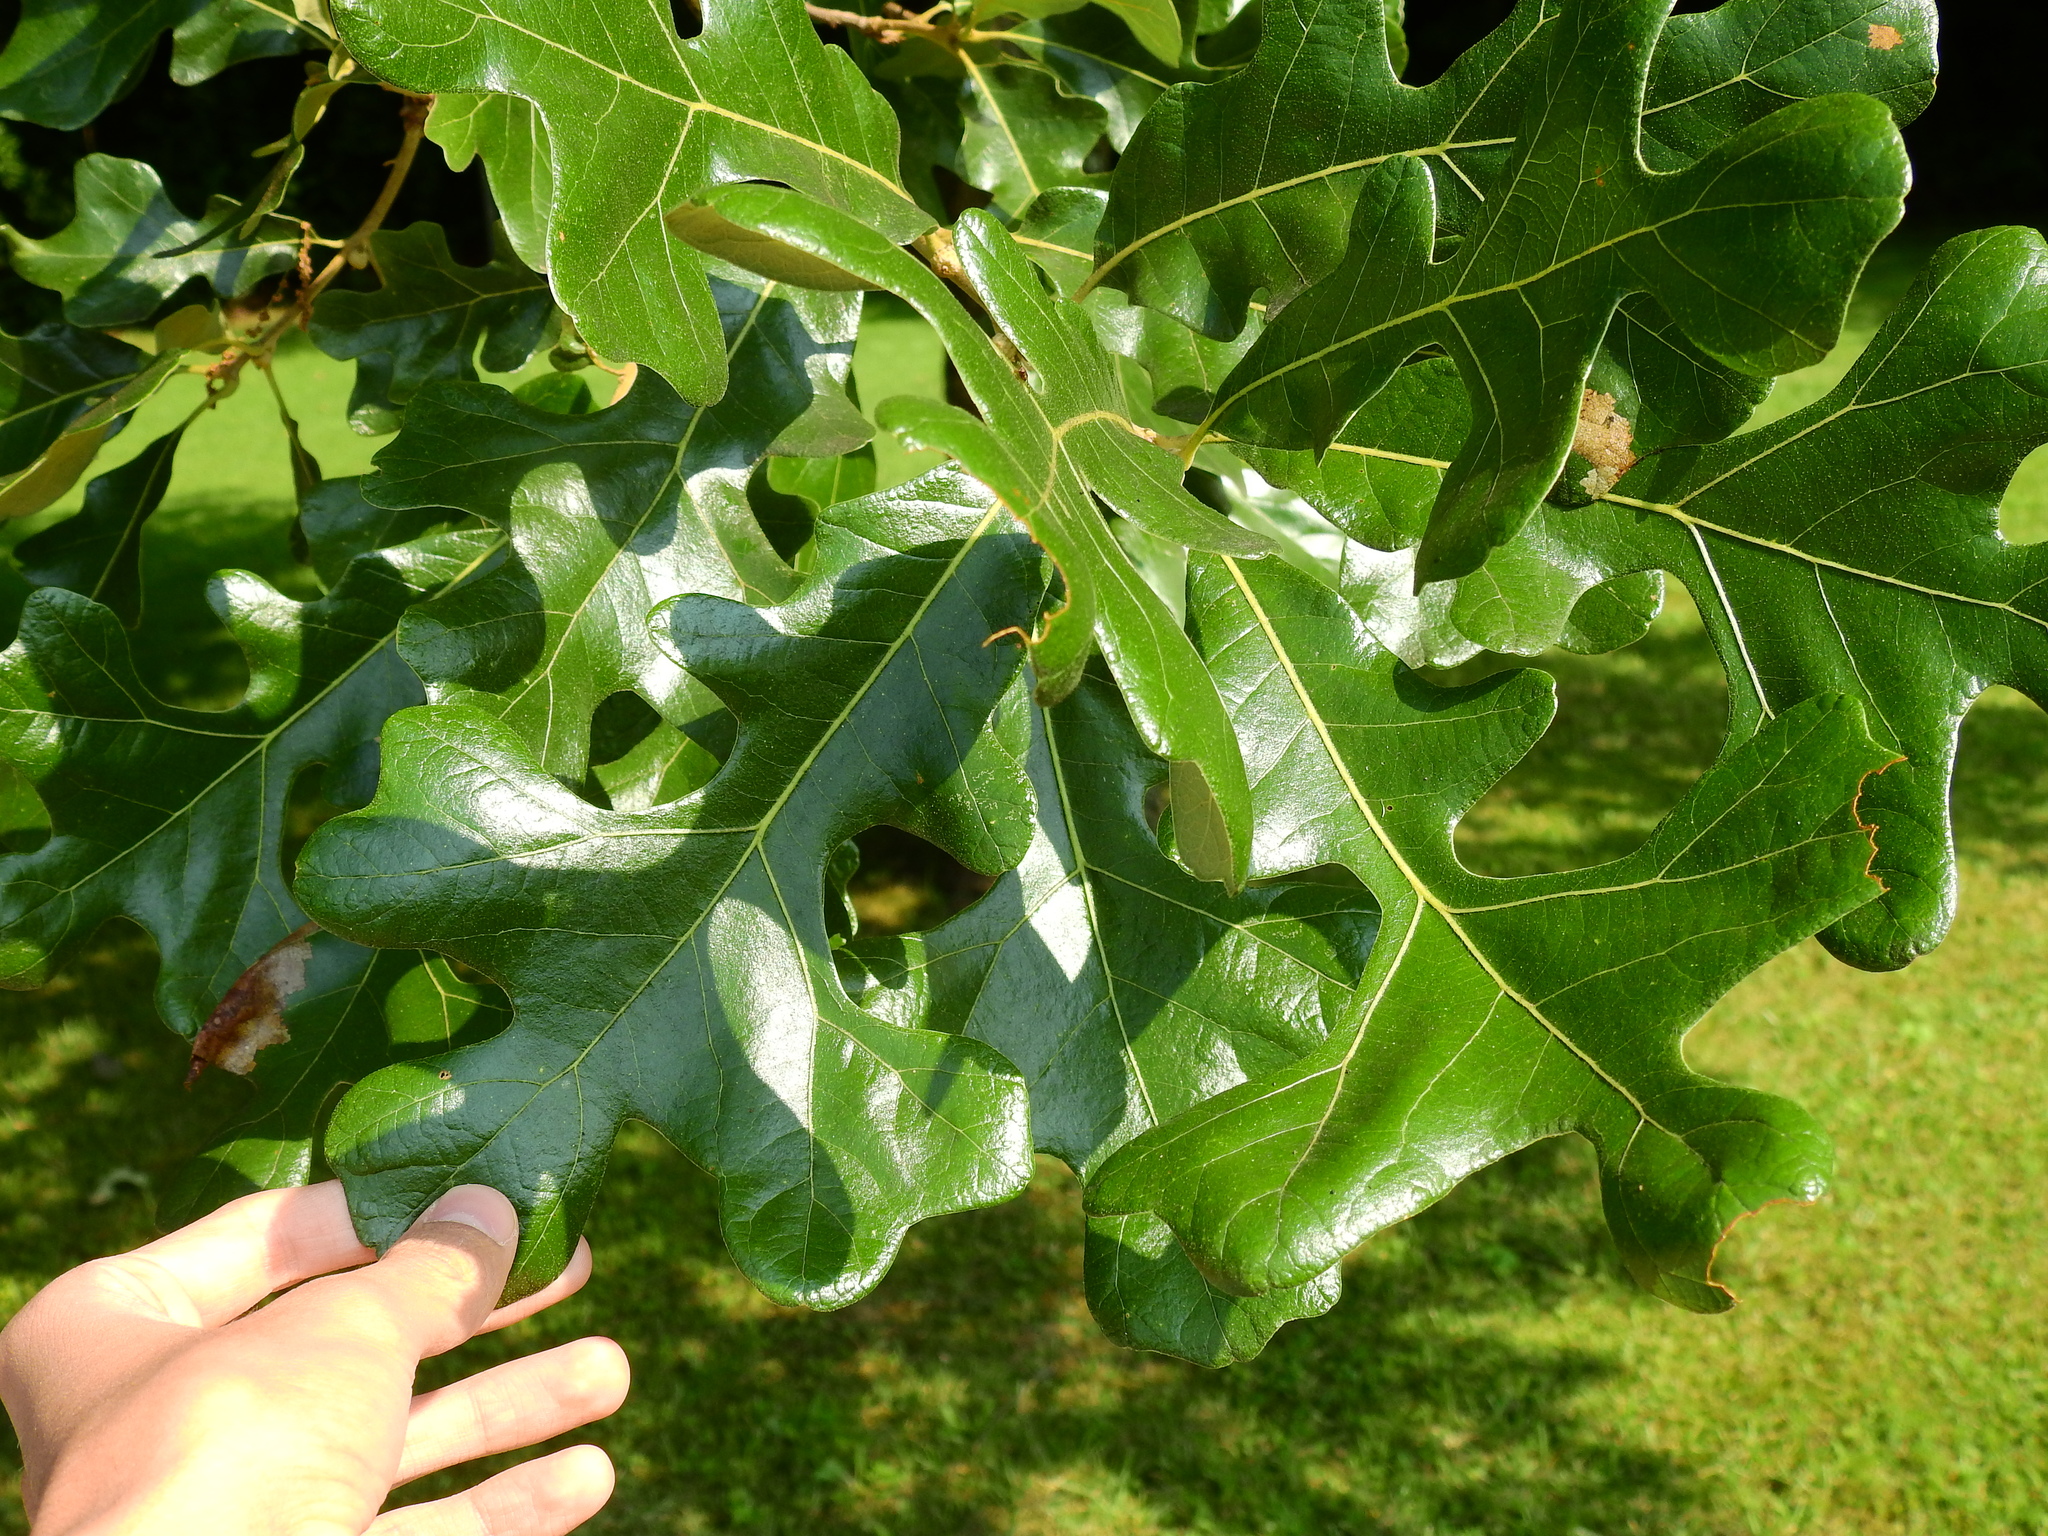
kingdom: Plantae
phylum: Tracheophyta
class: Magnoliopsida
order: Fagales
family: Fagaceae
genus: Quercus
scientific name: Quercus stellata
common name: Post oak
